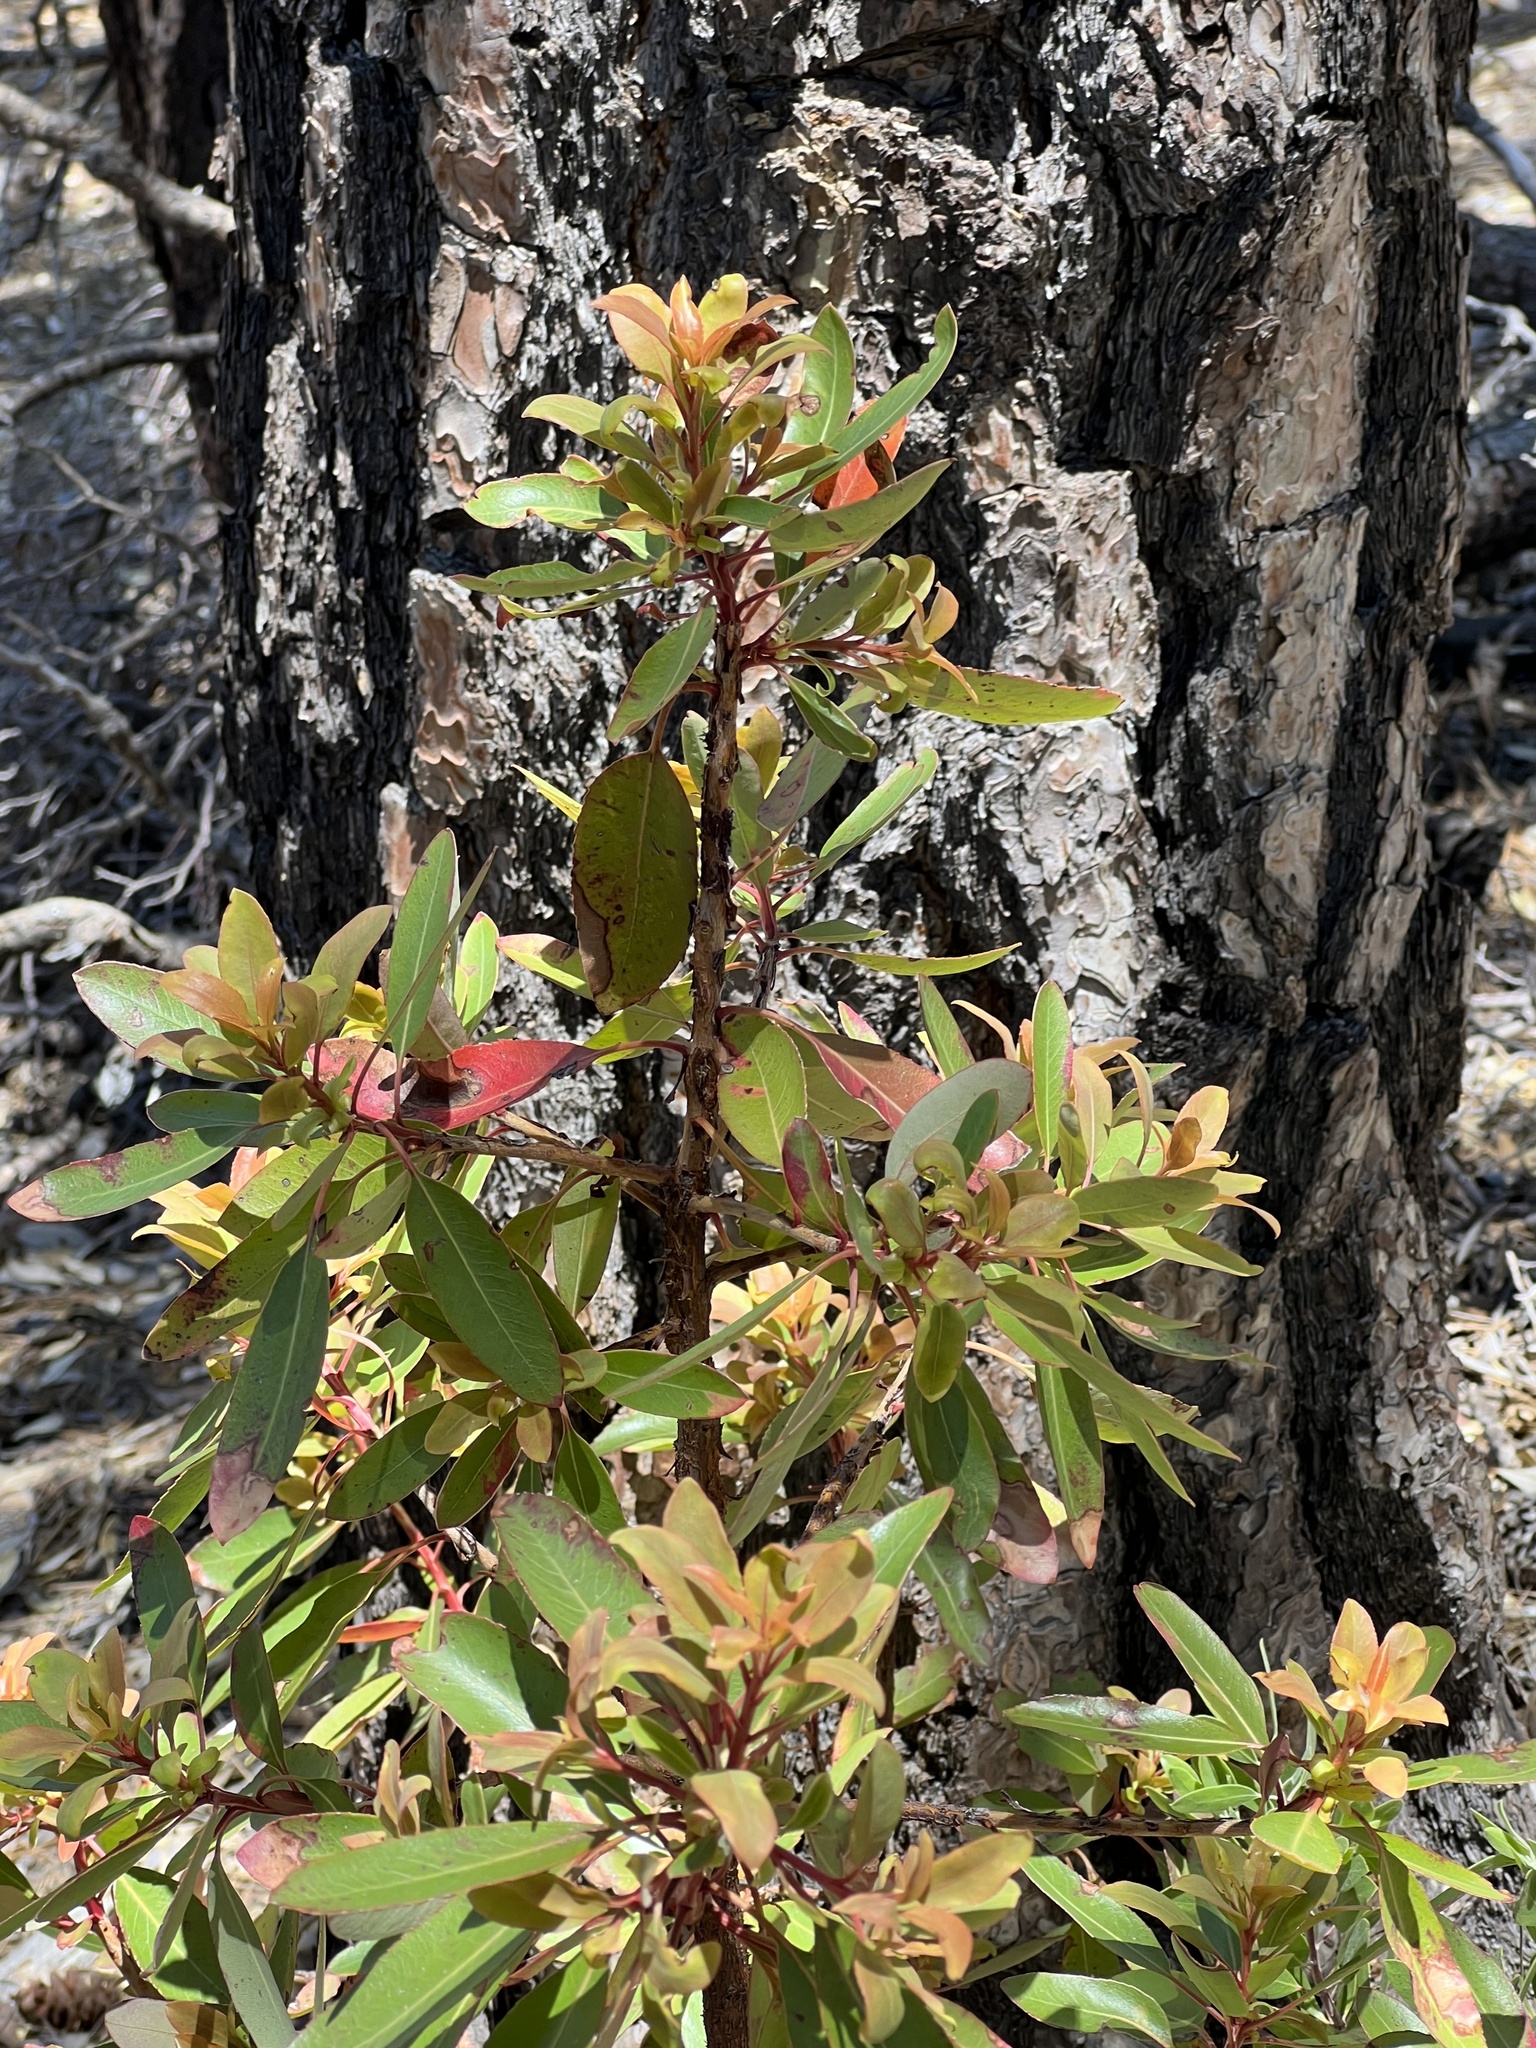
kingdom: Plantae
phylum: Tracheophyta
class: Magnoliopsida
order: Ericales
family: Ericaceae
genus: Arbutus
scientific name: Arbutus arizonica
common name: Arizona madrone
